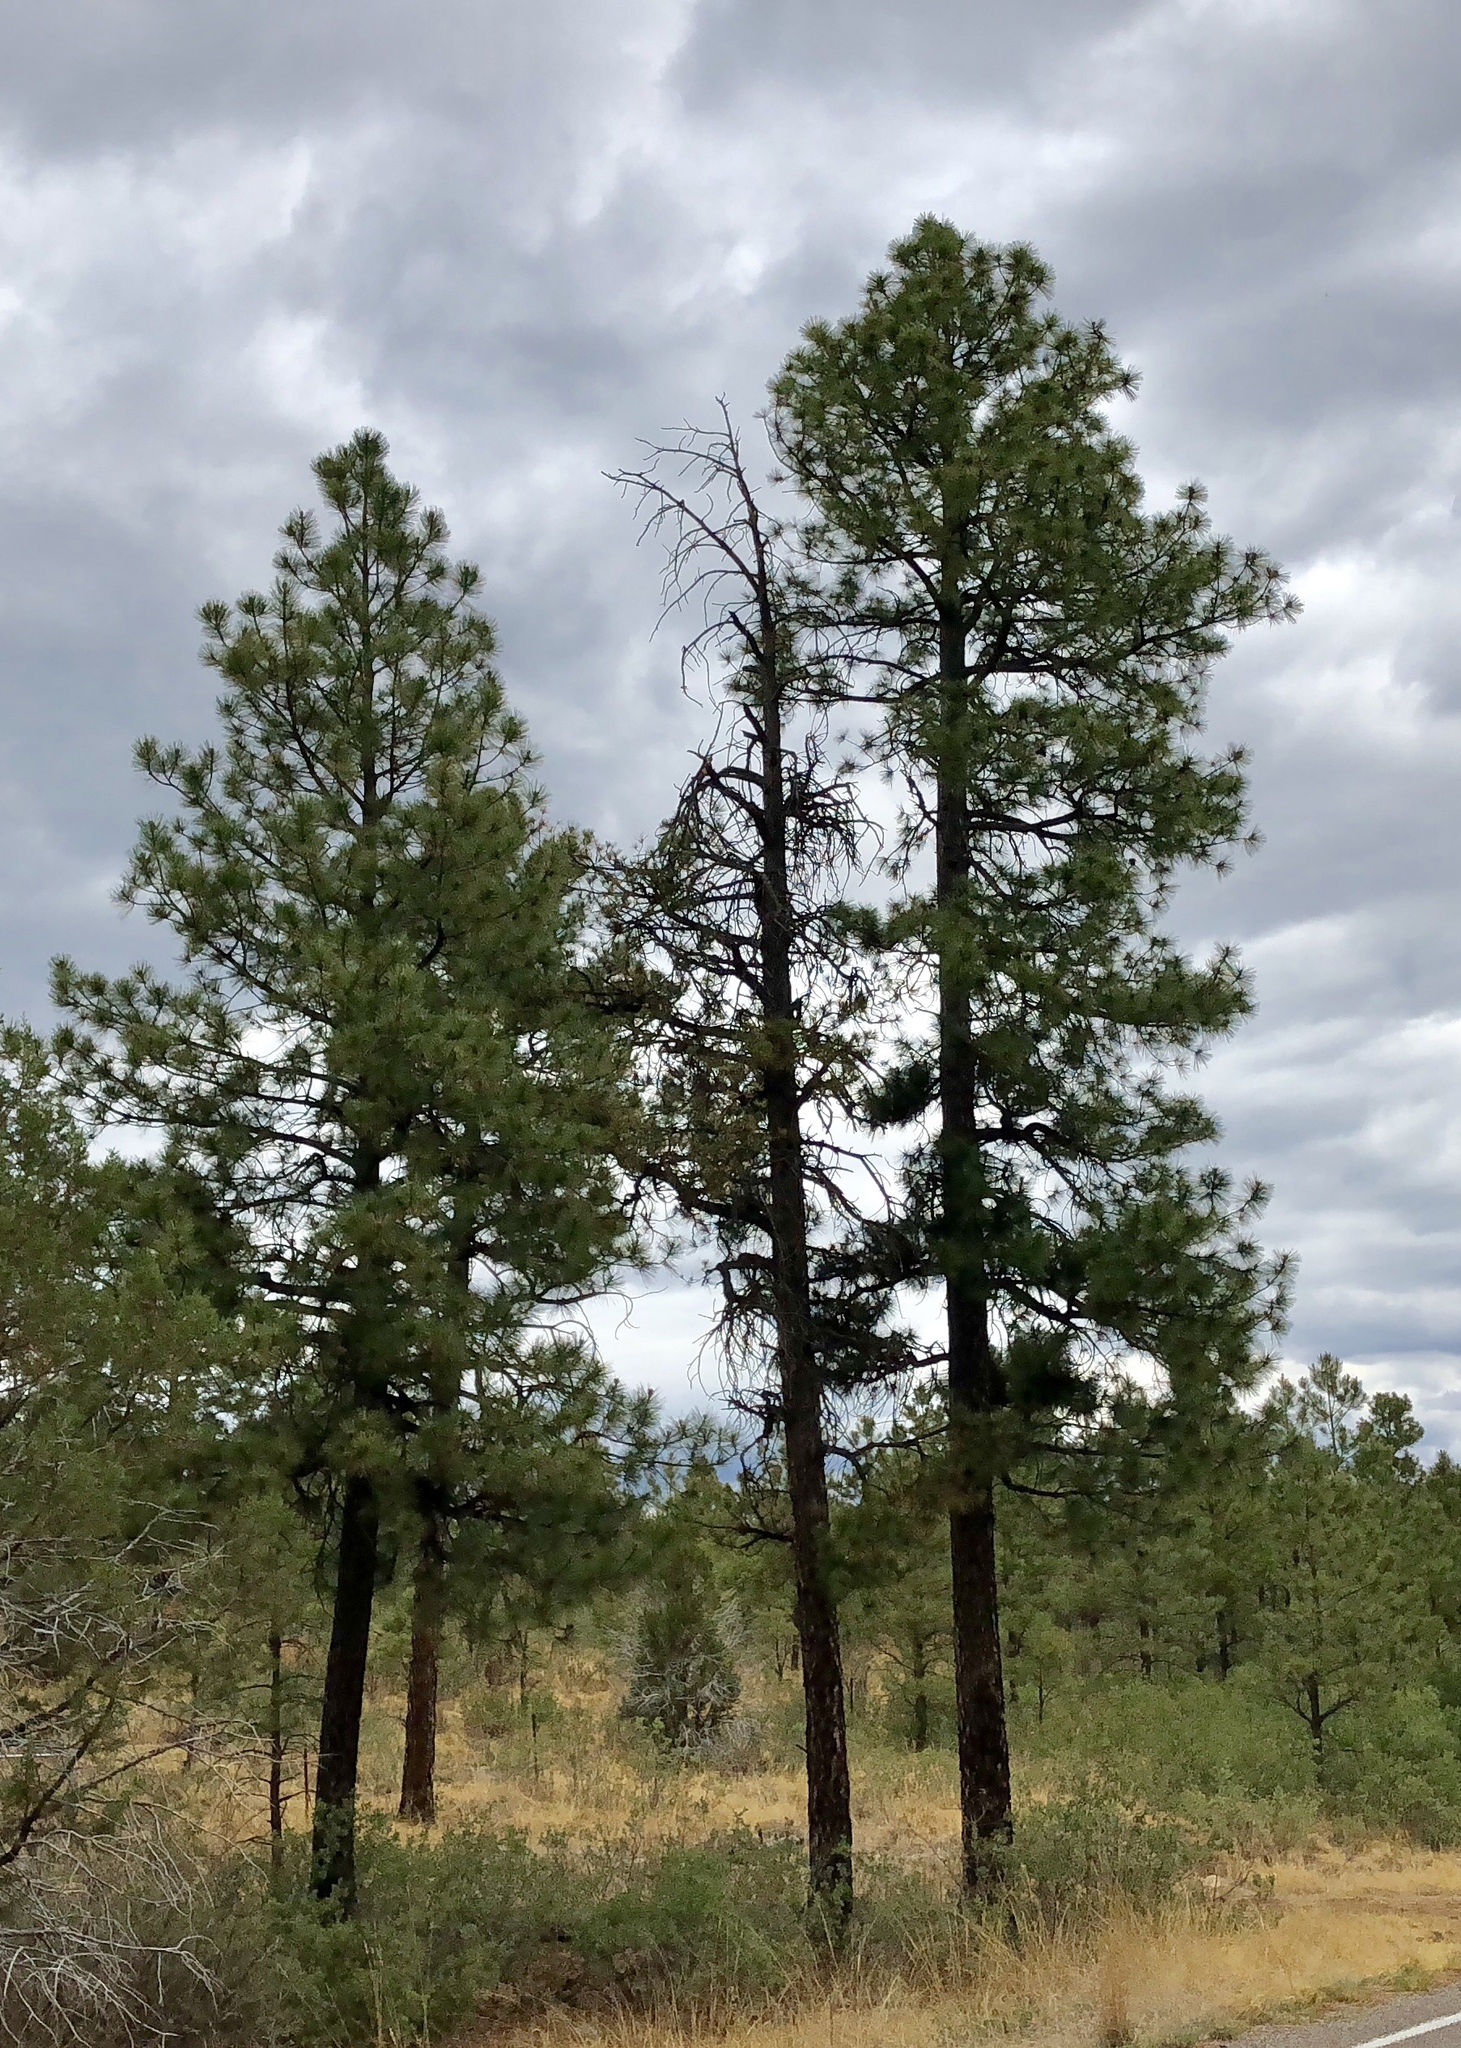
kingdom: Plantae
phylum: Tracheophyta
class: Pinopsida
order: Pinales
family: Pinaceae
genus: Pinus
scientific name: Pinus ponderosa
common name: Western yellow-pine
